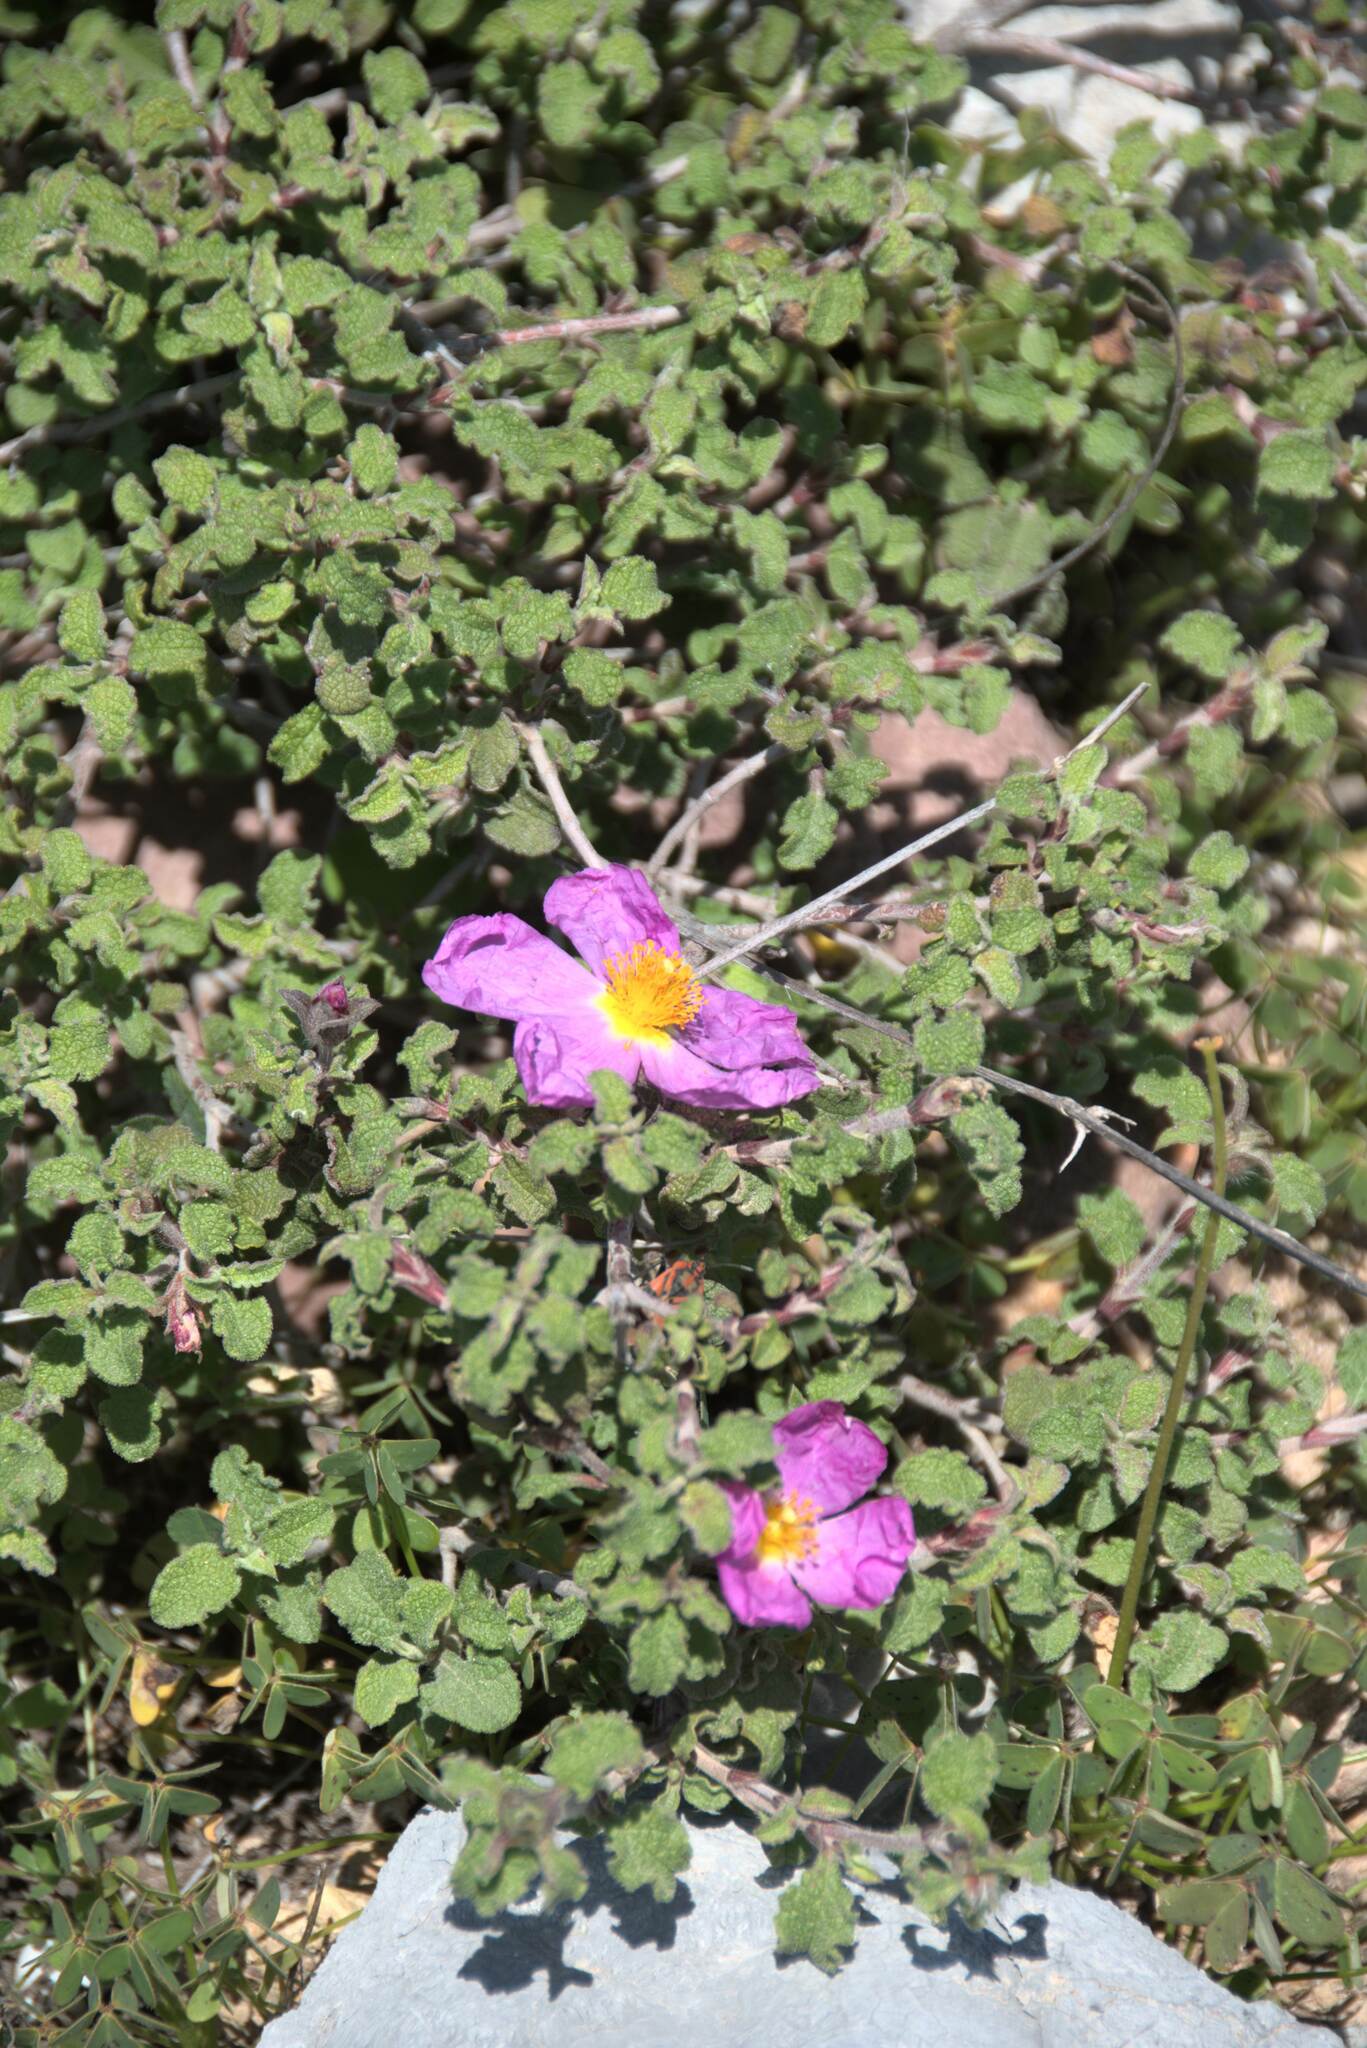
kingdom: Plantae
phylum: Tracheophyta
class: Magnoliopsida
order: Malvales
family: Cistaceae
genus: Cistus
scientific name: Cistus creticus
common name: Cretan rockrose
